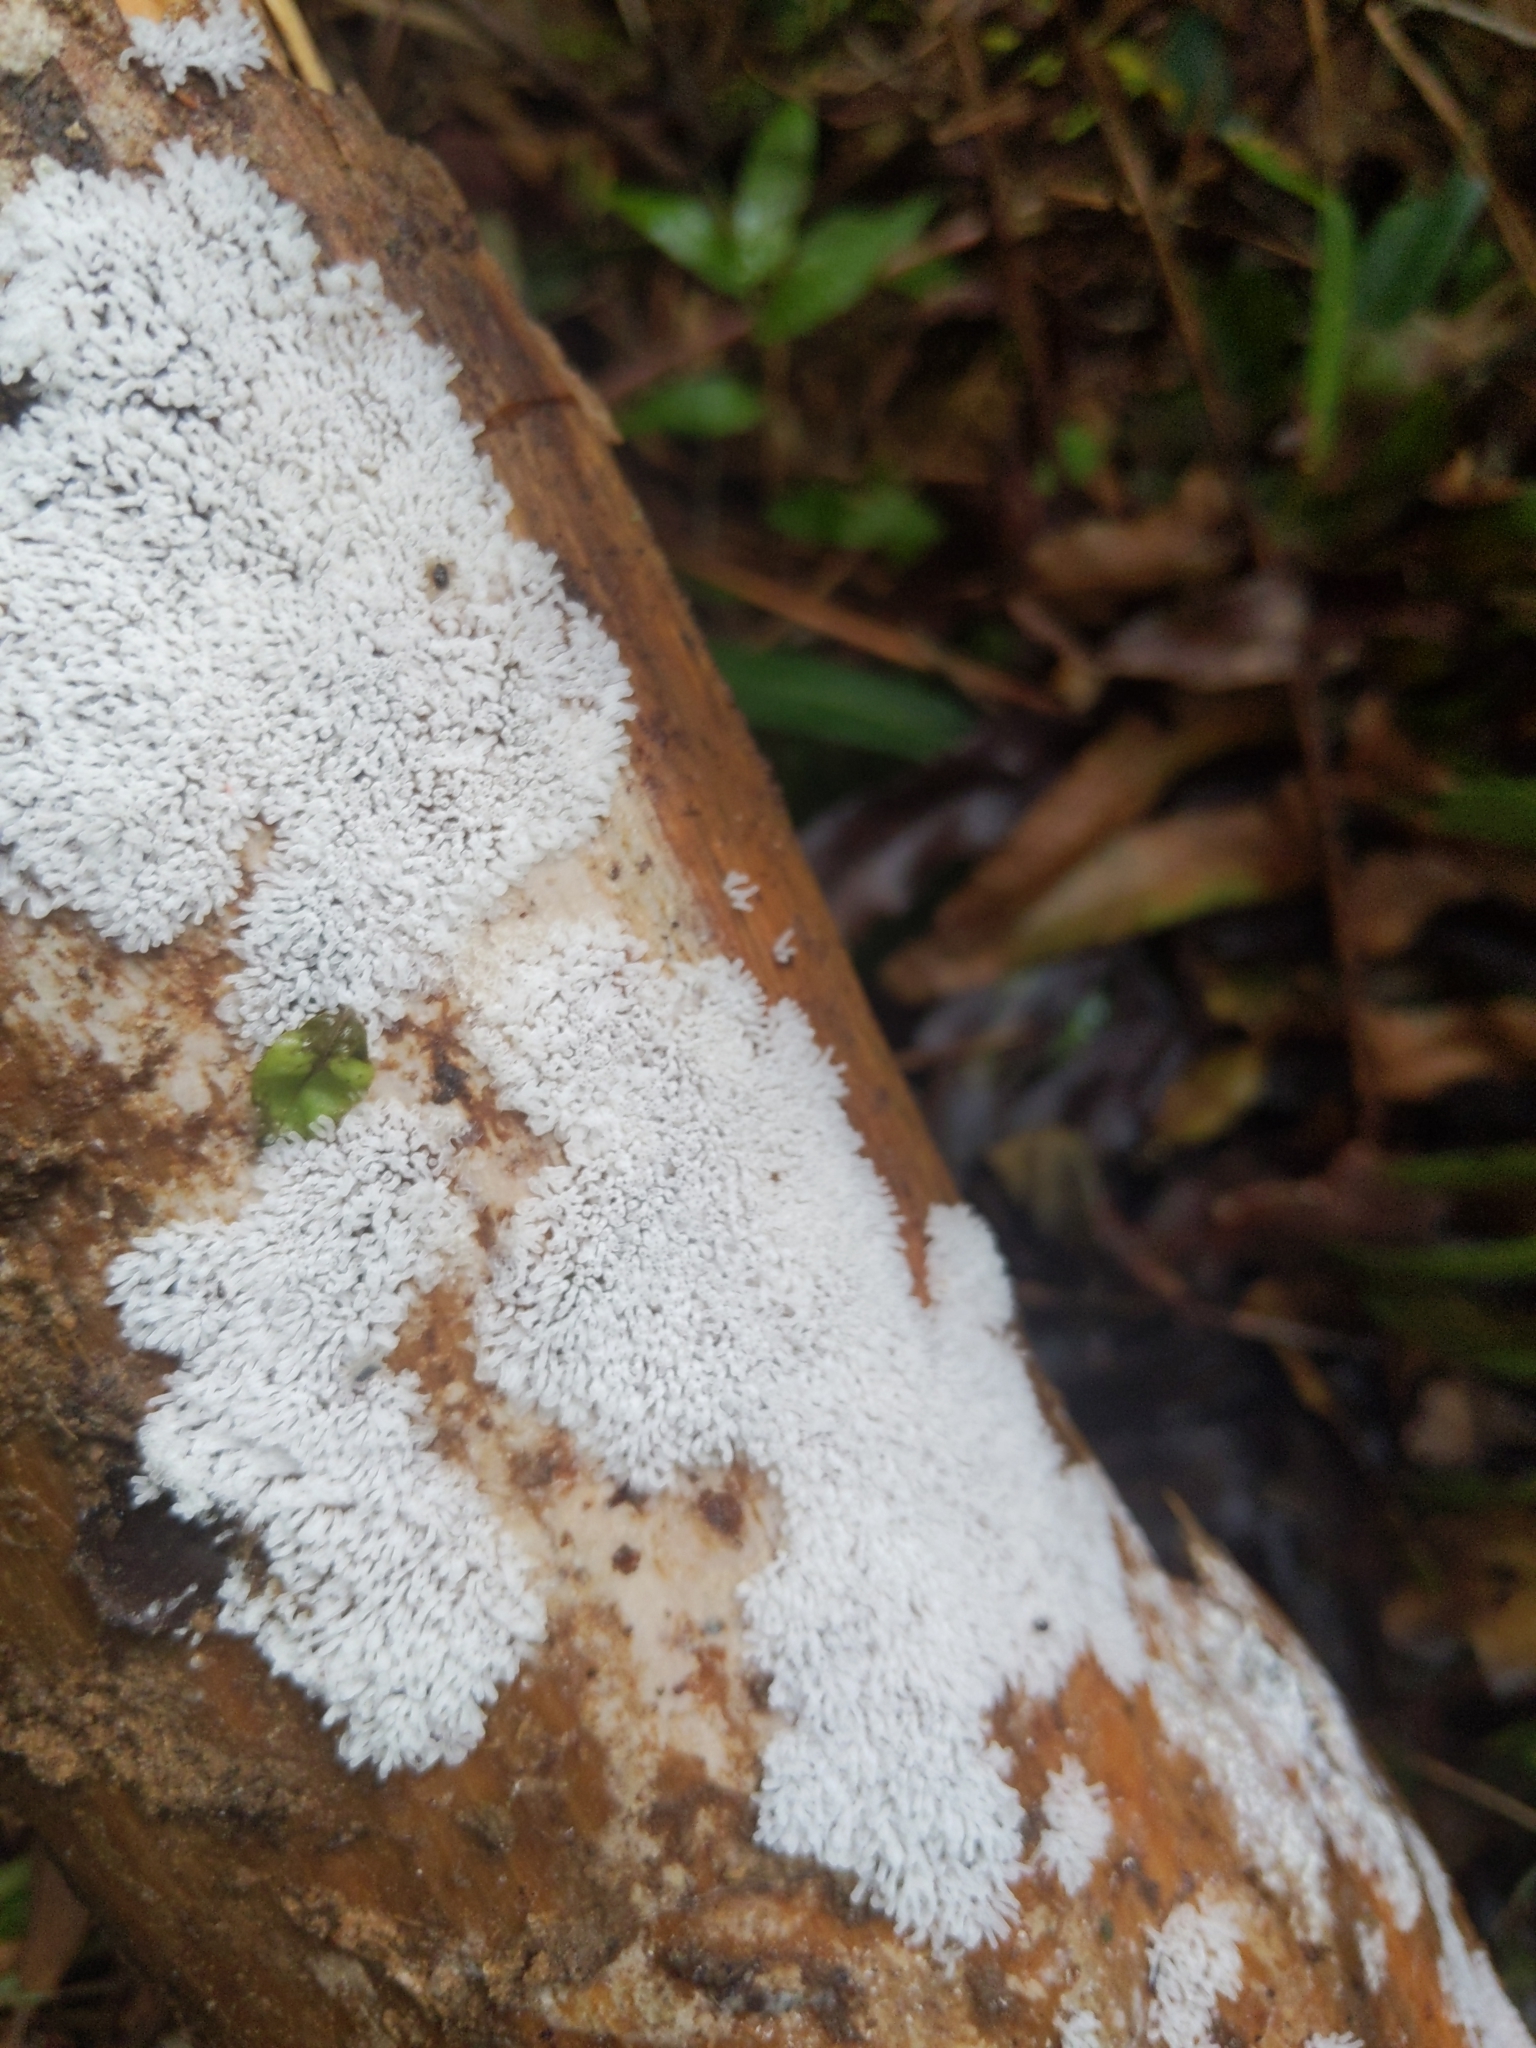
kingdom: Protozoa
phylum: Mycetozoa
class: Protosteliomycetes
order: Ceratiomyxales
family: Ceratiomyxaceae
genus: Ceratiomyxa
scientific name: Ceratiomyxa fruticulosa
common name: Honeycomb coral slime mold
